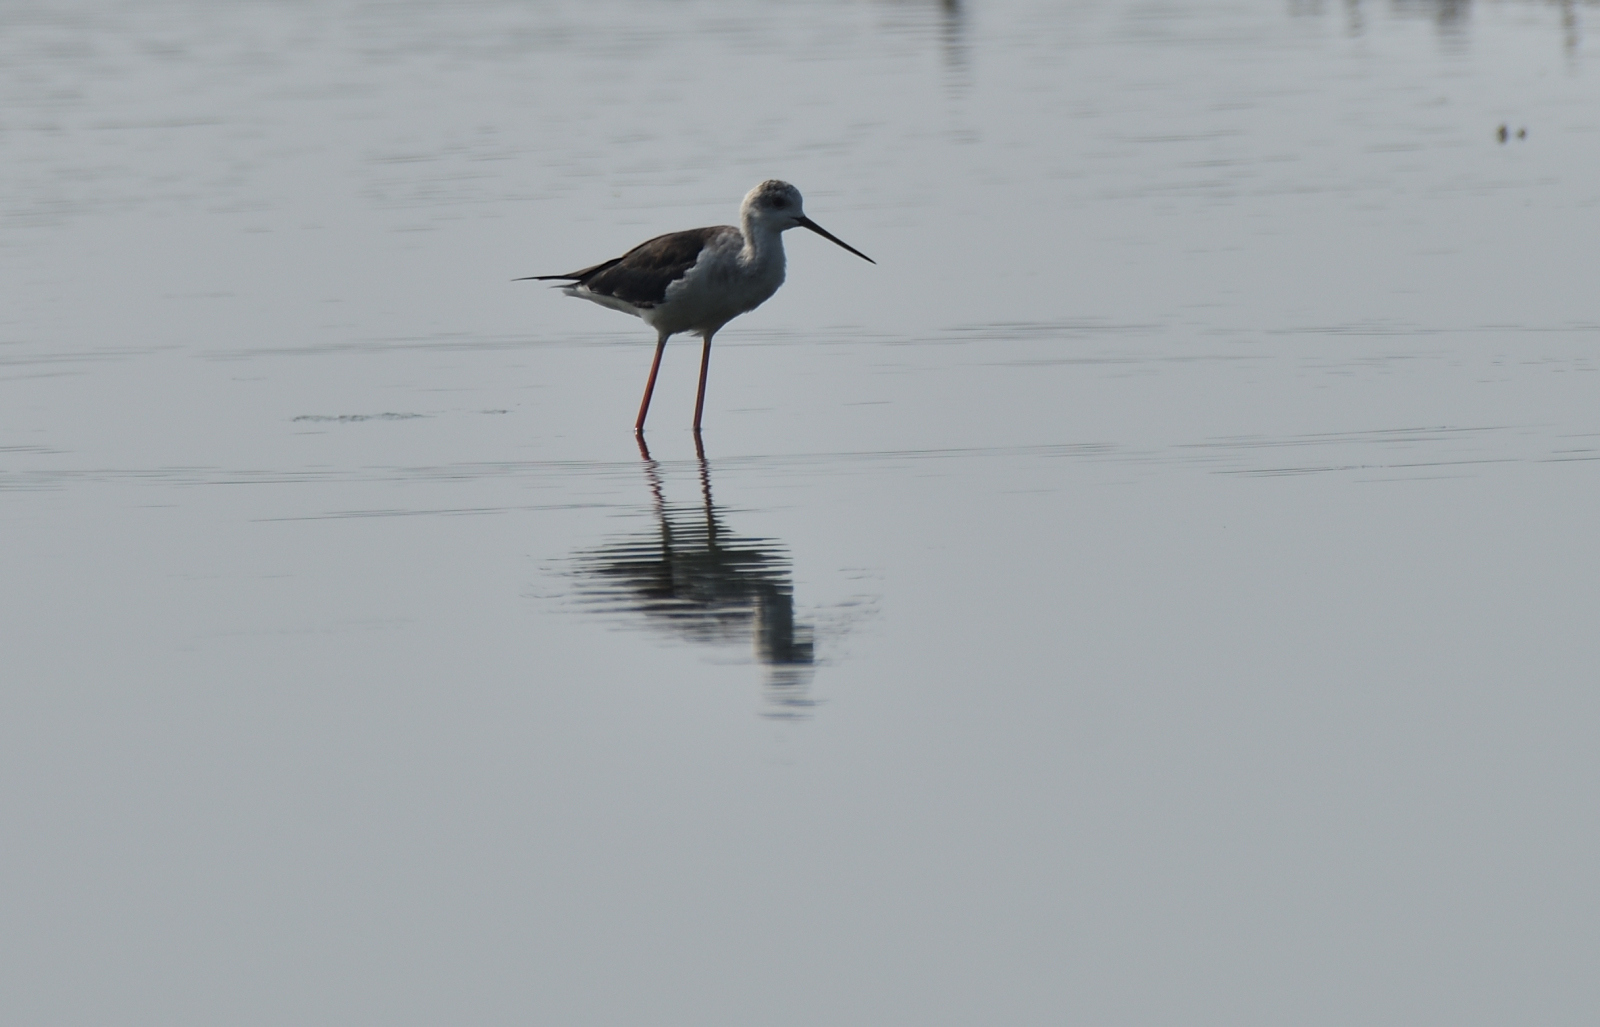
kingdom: Animalia
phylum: Chordata
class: Aves
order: Charadriiformes
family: Recurvirostridae
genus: Himantopus
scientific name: Himantopus himantopus
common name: Black-winged stilt
